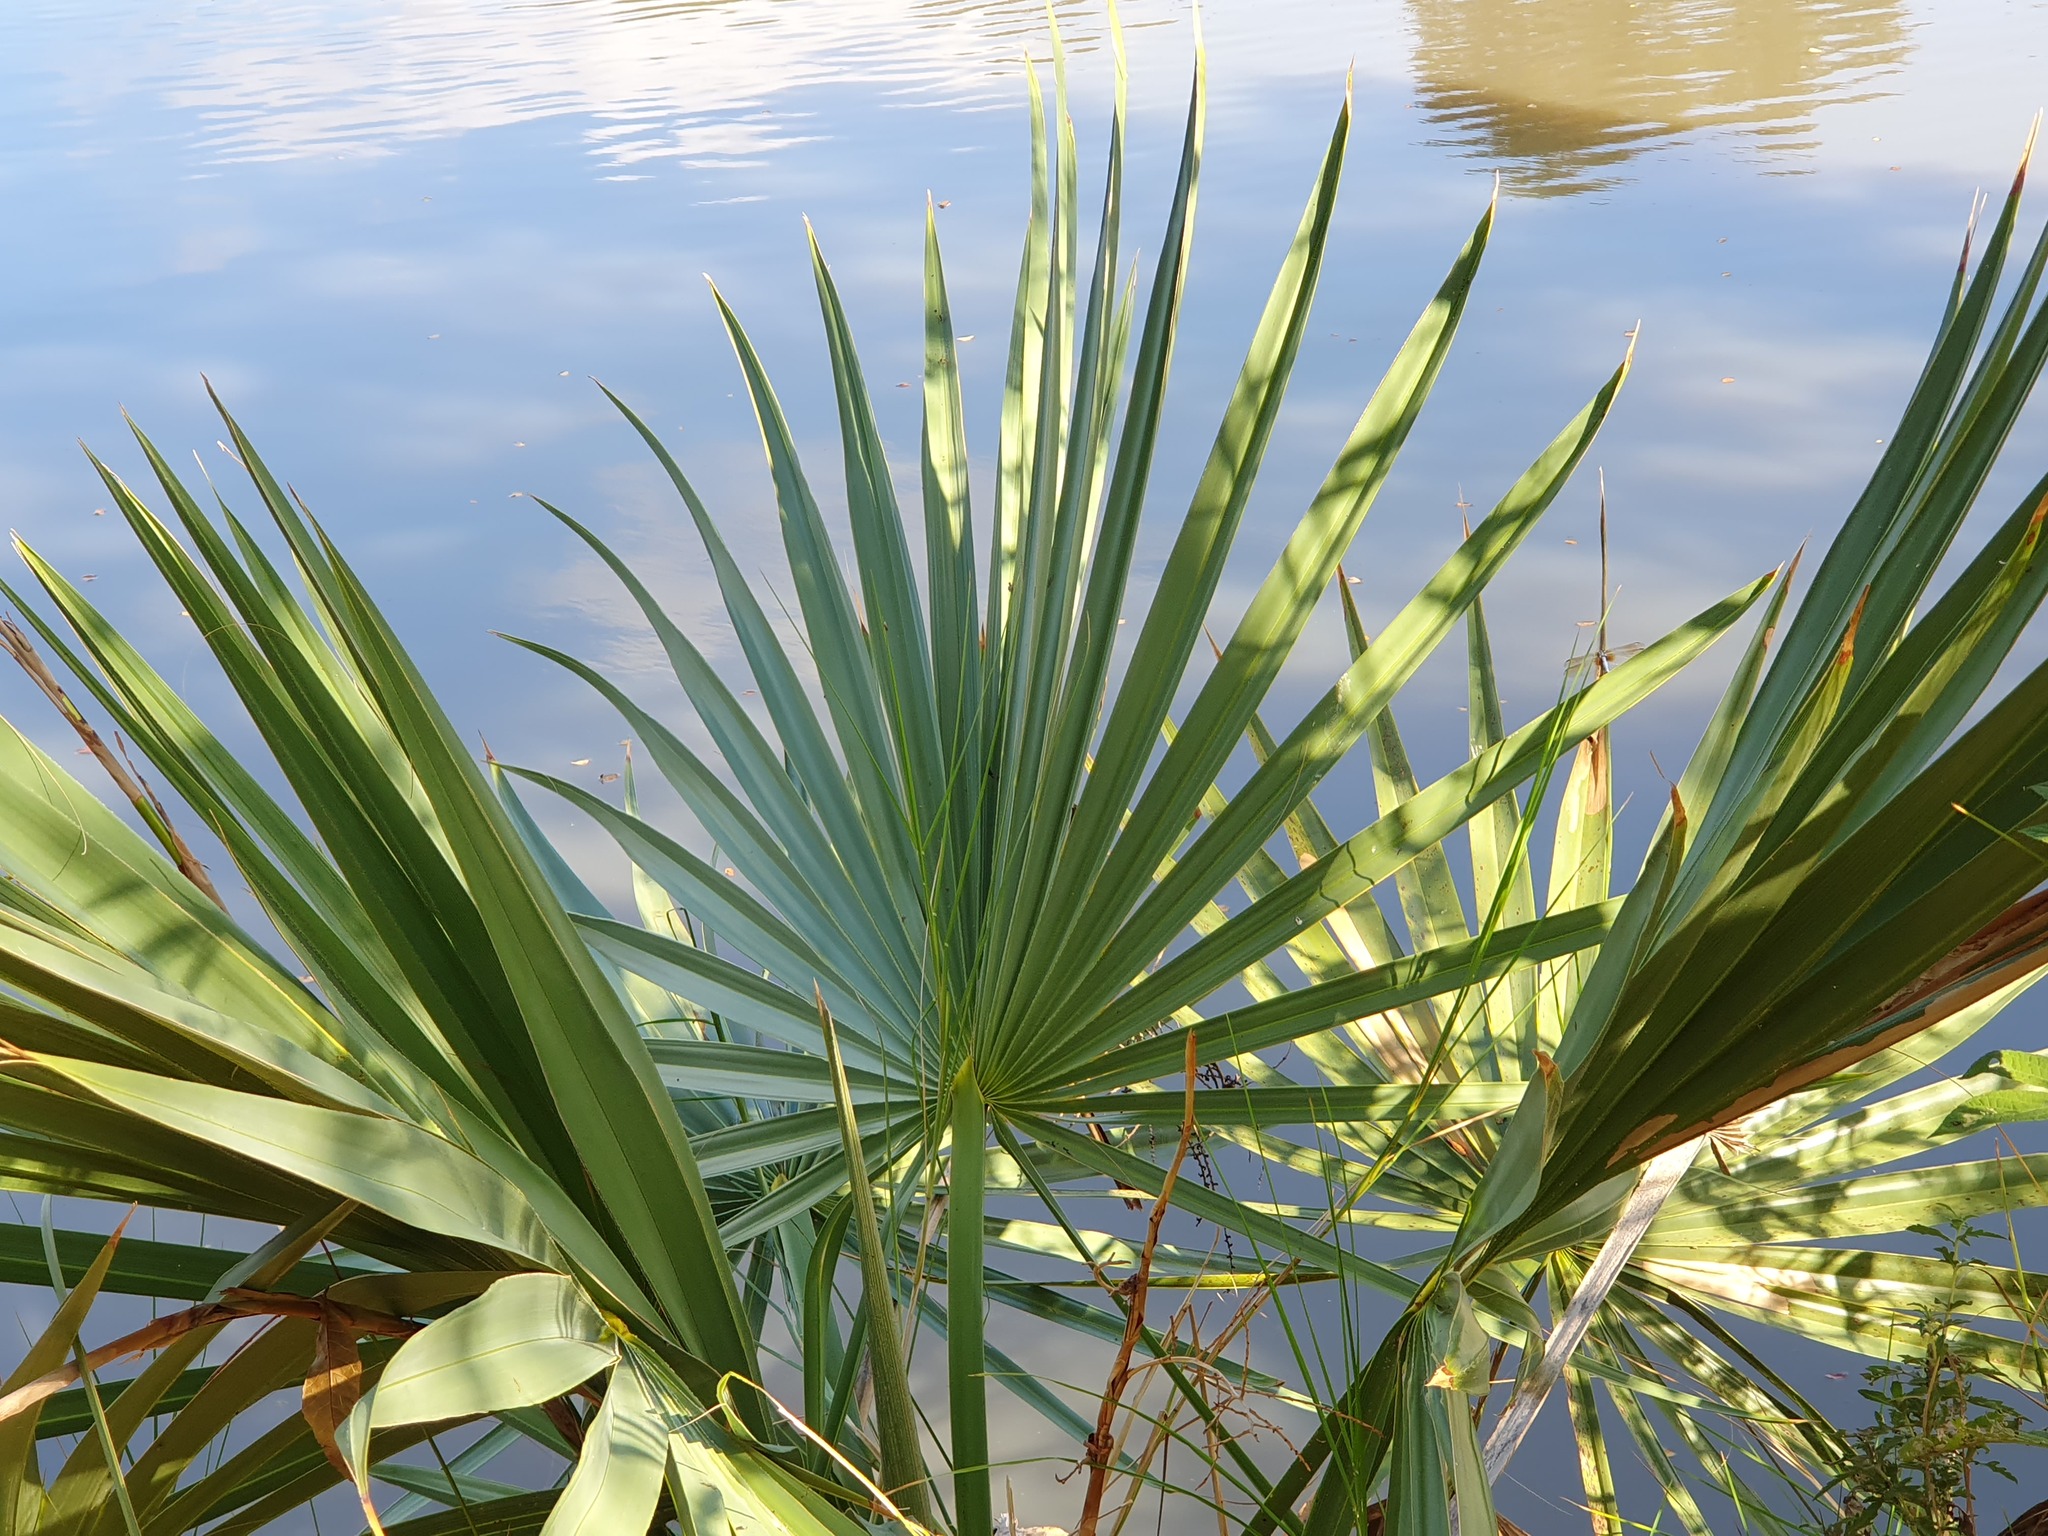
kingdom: Plantae
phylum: Tracheophyta
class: Liliopsida
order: Arecales
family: Arecaceae
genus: Sabal
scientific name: Sabal minor
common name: Dwarf palmetto
